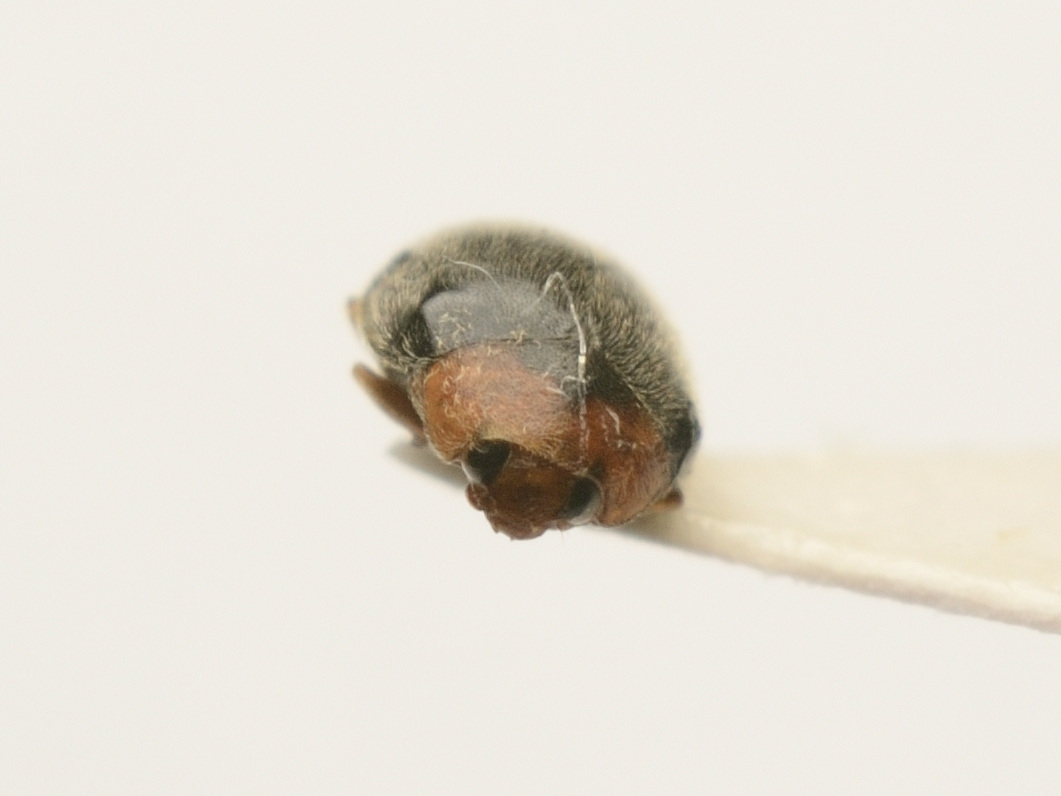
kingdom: Animalia
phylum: Arthropoda
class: Insecta
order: Coleoptera
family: Coccinellidae
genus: Scymnus
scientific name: Scymnus ferrugatus
